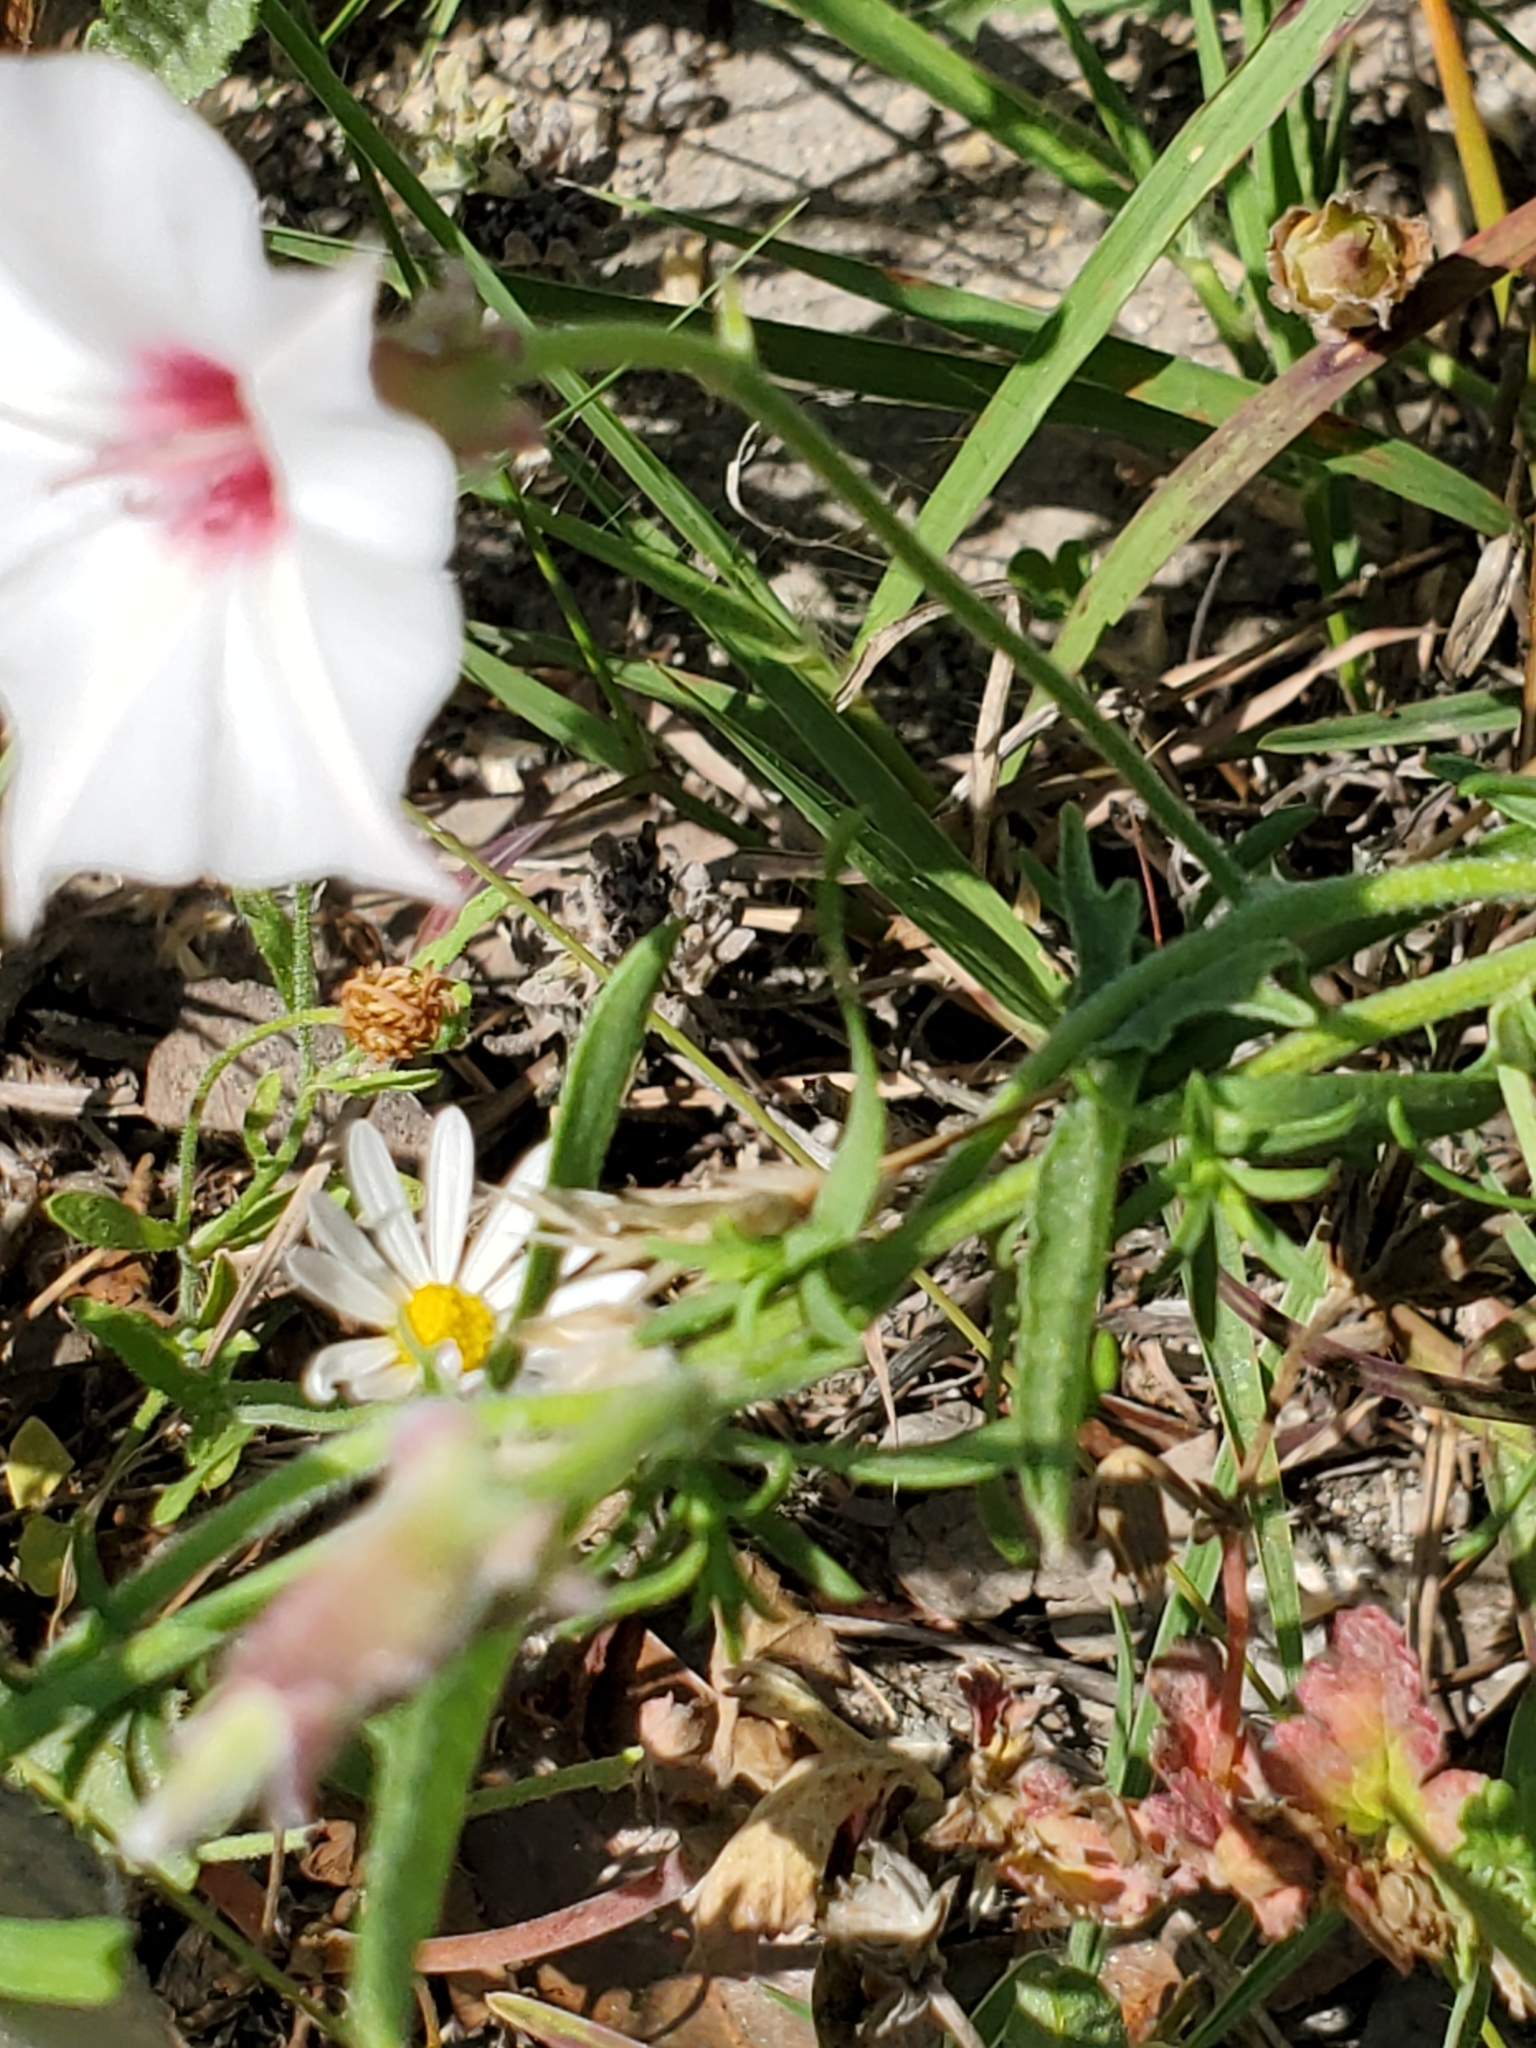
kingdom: Plantae
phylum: Tracheophyta
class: Magnoliopsida
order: Solanales
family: Convolvulaceae
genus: Convolvulus
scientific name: Convolvulus equitans
